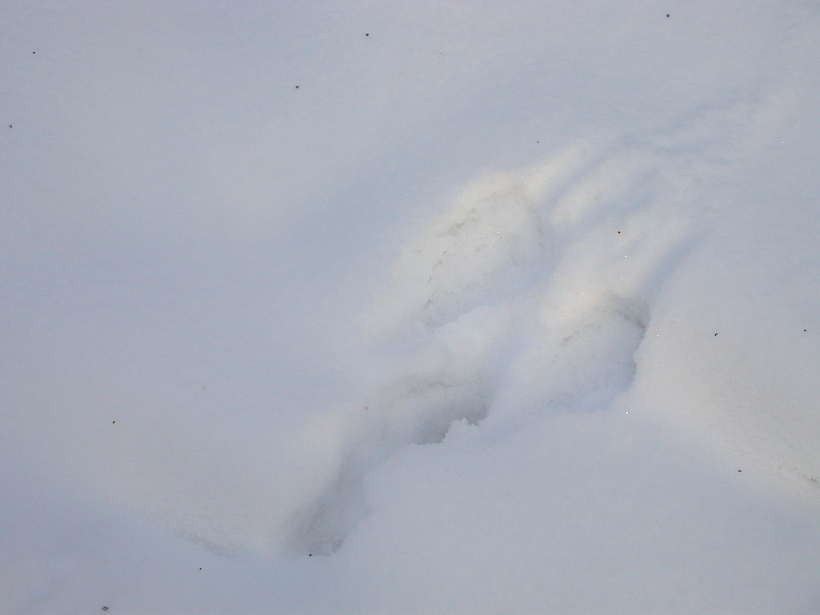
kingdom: Animalia
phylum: Chordata
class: Mammalia
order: Lagomorpha
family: Leporidae
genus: Lepus
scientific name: Lepus timidus
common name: Mountain hare
